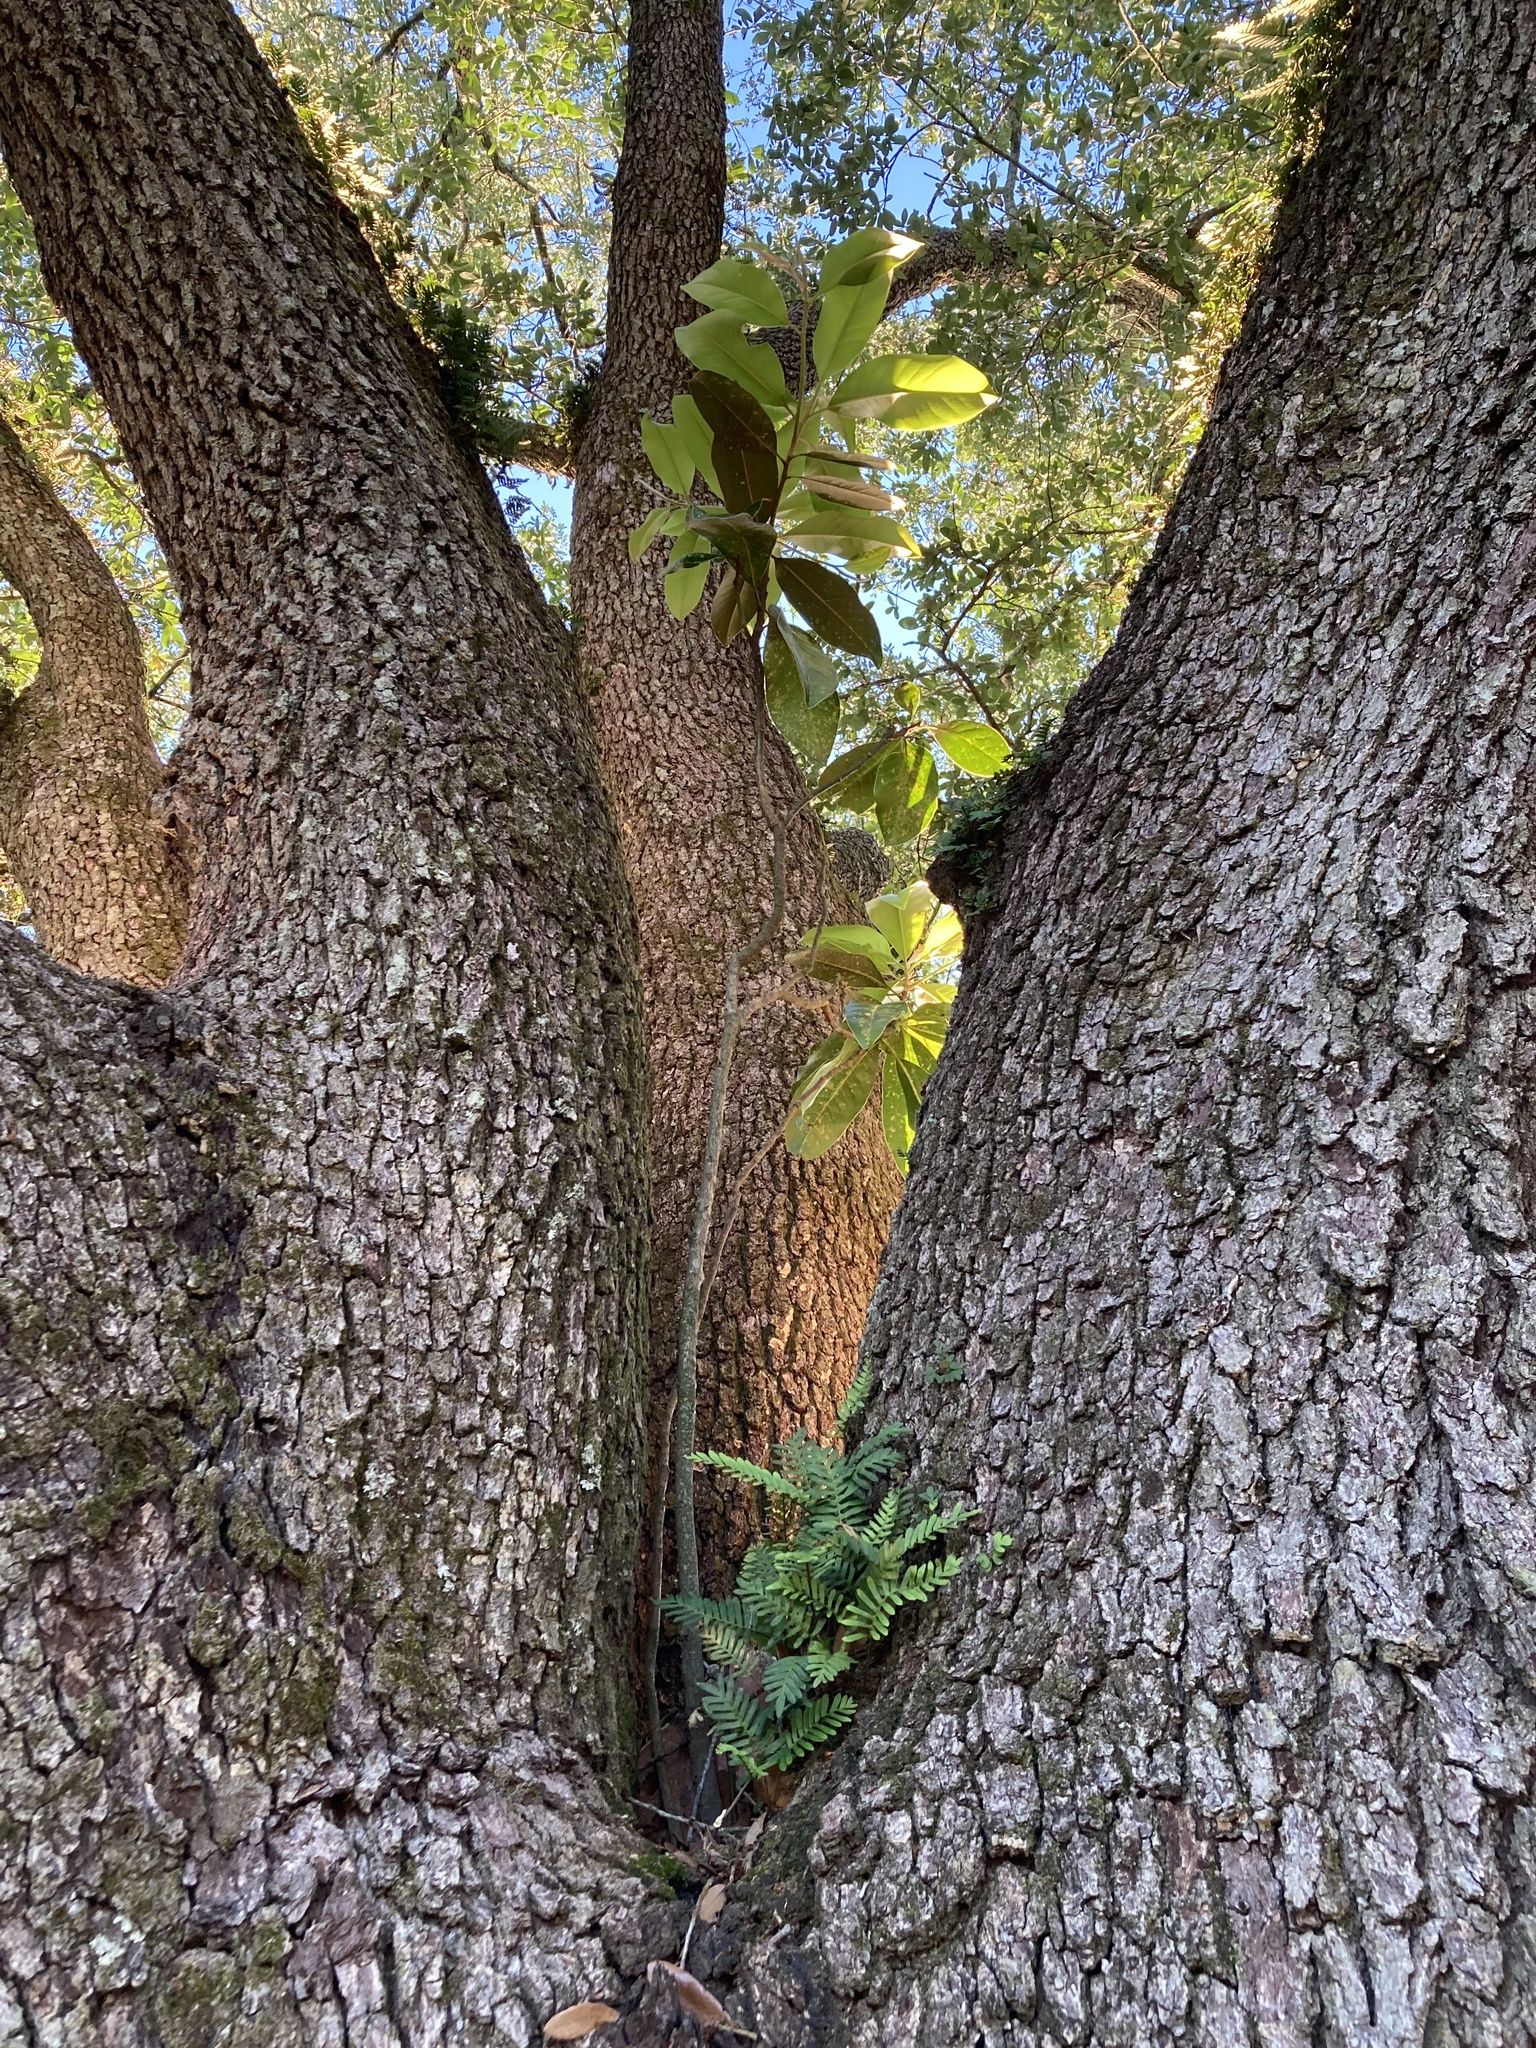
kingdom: Plantae
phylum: Tracheophyta
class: Magnoliopsida
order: Magnoliales
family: Magnoliaceae
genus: Magnolia
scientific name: Magnolia grandiflora
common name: Southern magnolia
